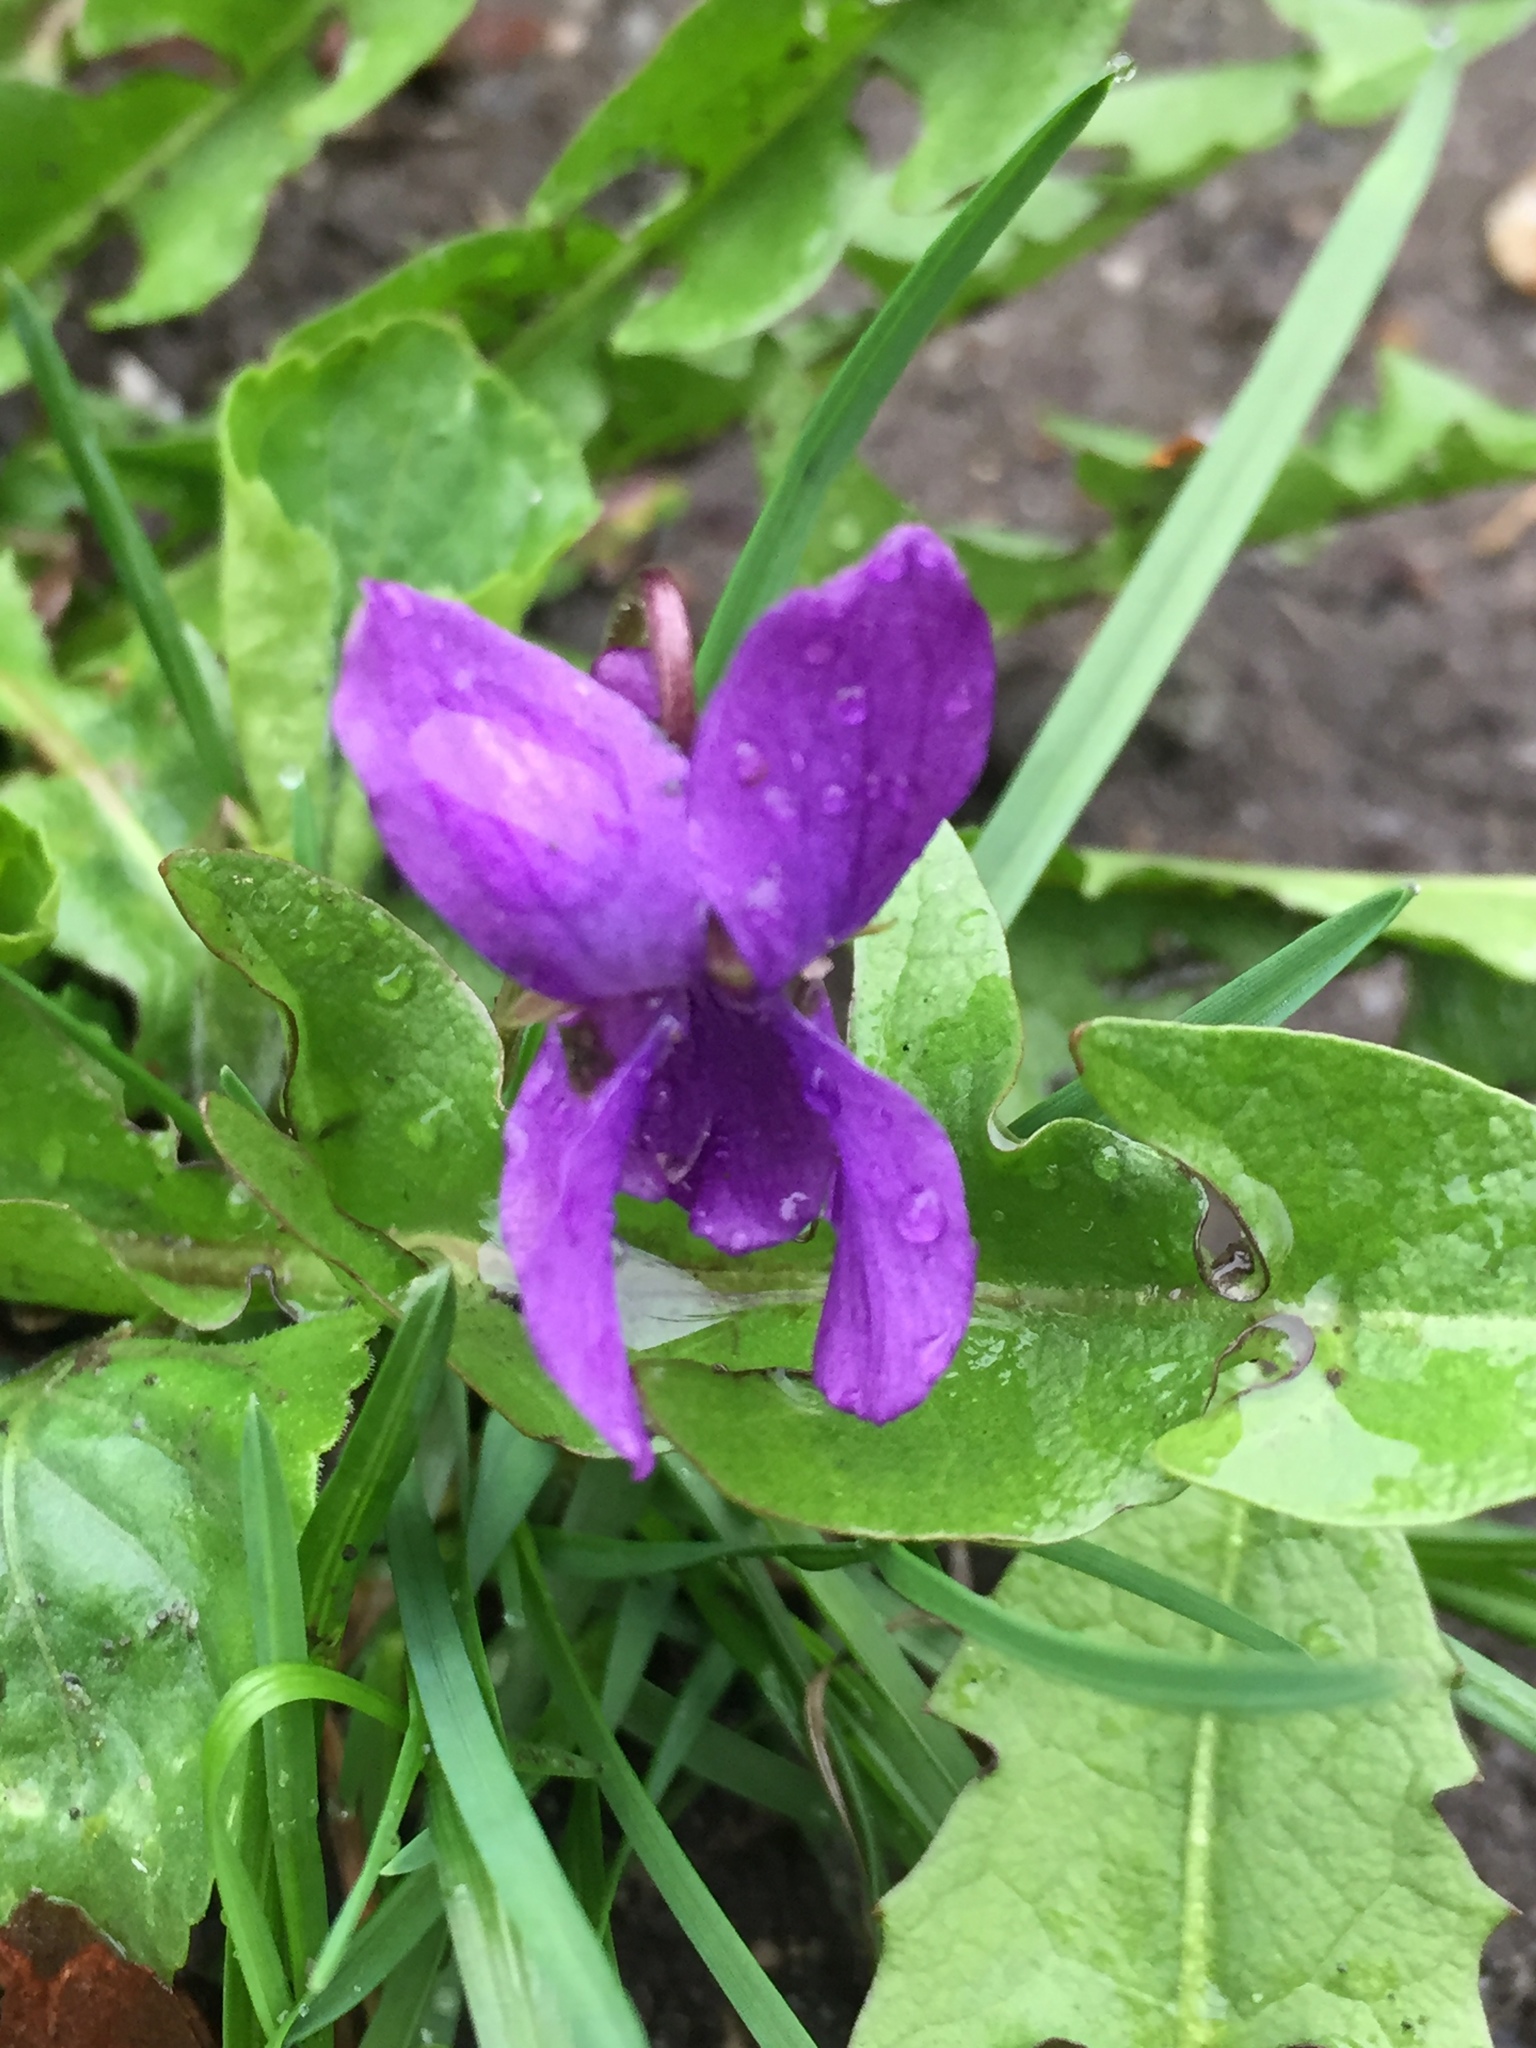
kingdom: Plantae
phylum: Tracheophyta
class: Magnoliopsida
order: Malpighiales
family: Violaceae
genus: Viola
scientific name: Viola odorata
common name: Sweet violet
